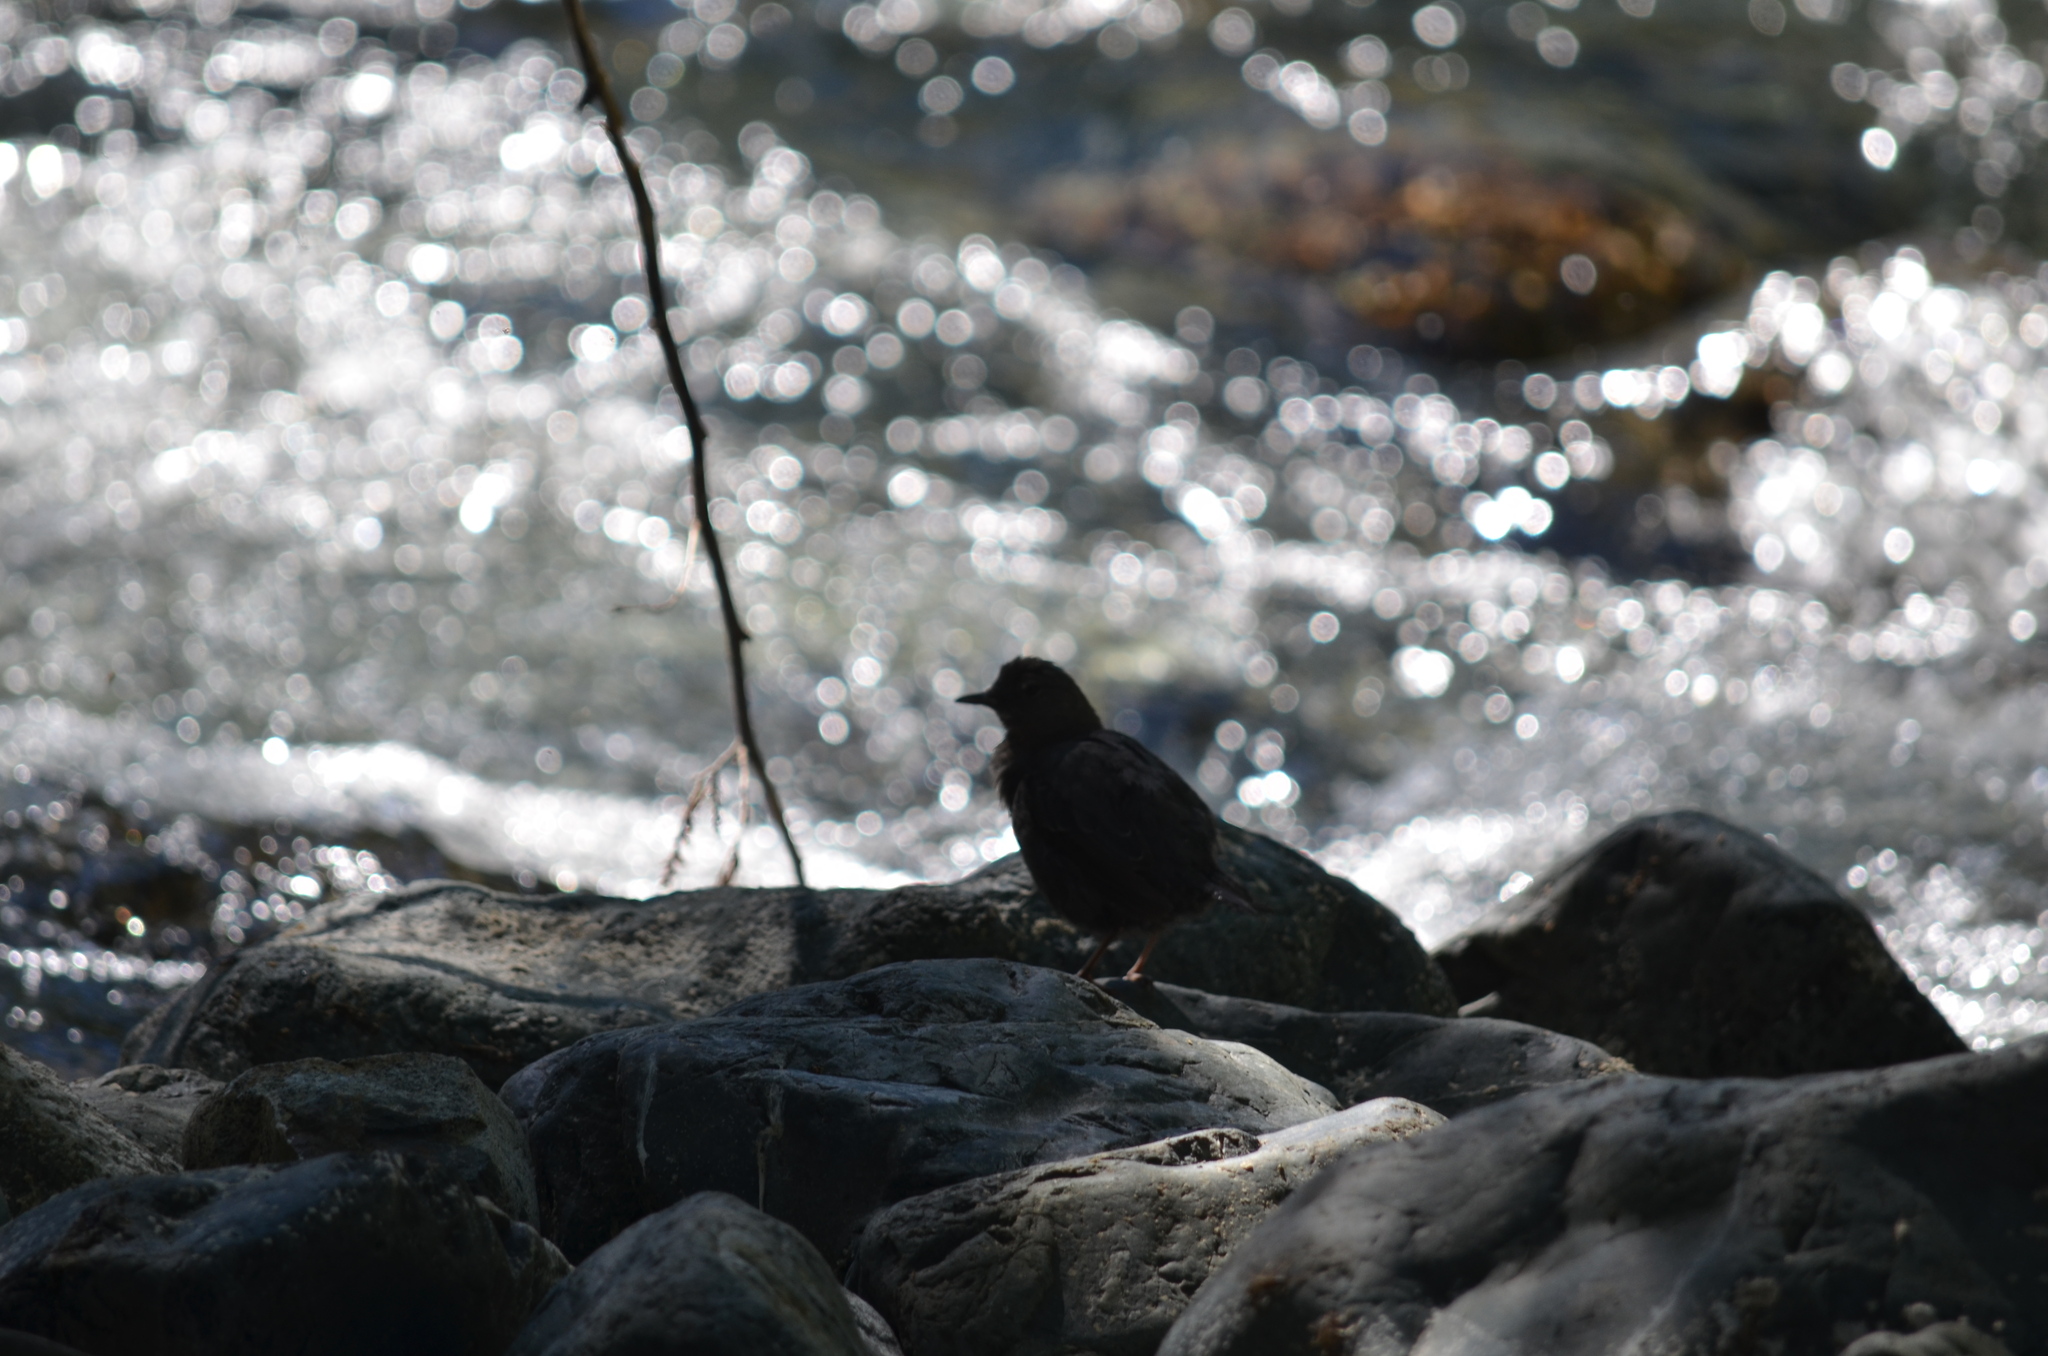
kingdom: Animalia
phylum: Chordata
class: Aves
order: Passeriformes
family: Cinclidae
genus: Cinclus
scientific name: Cinclus mexicanus
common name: American dipper
